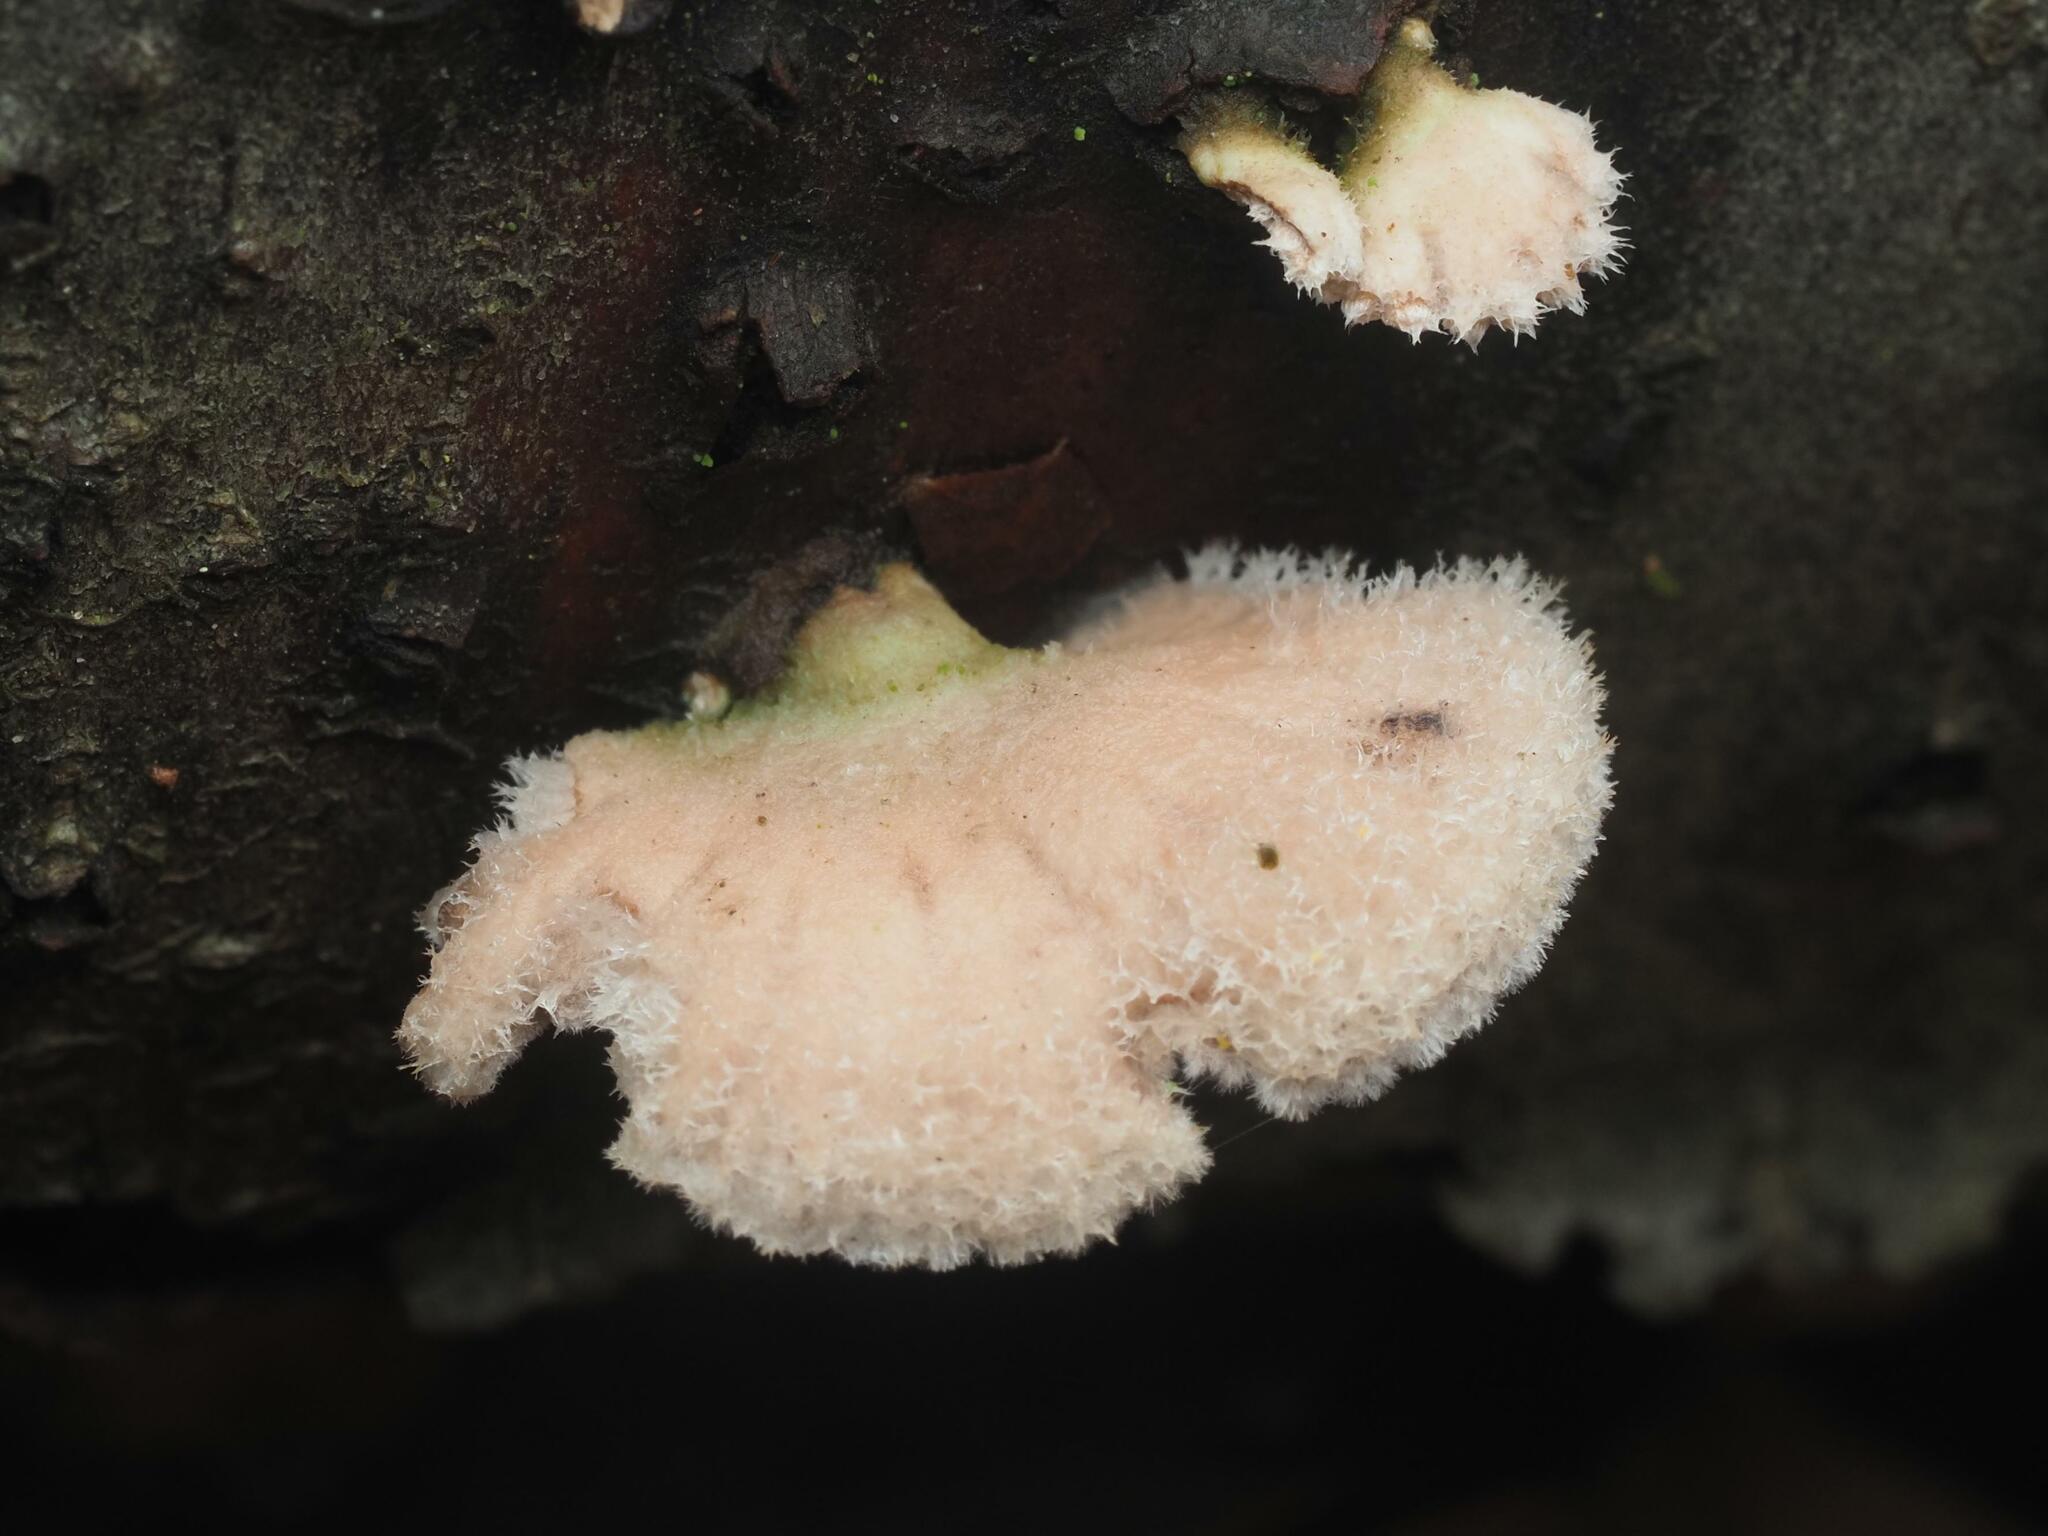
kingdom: Fungi
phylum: Basidiomycota
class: Agaricomycetes
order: Agaricales
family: Schizophyllaceae
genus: Schizophyllum
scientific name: Schizophyllum commune
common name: Common porecrust
